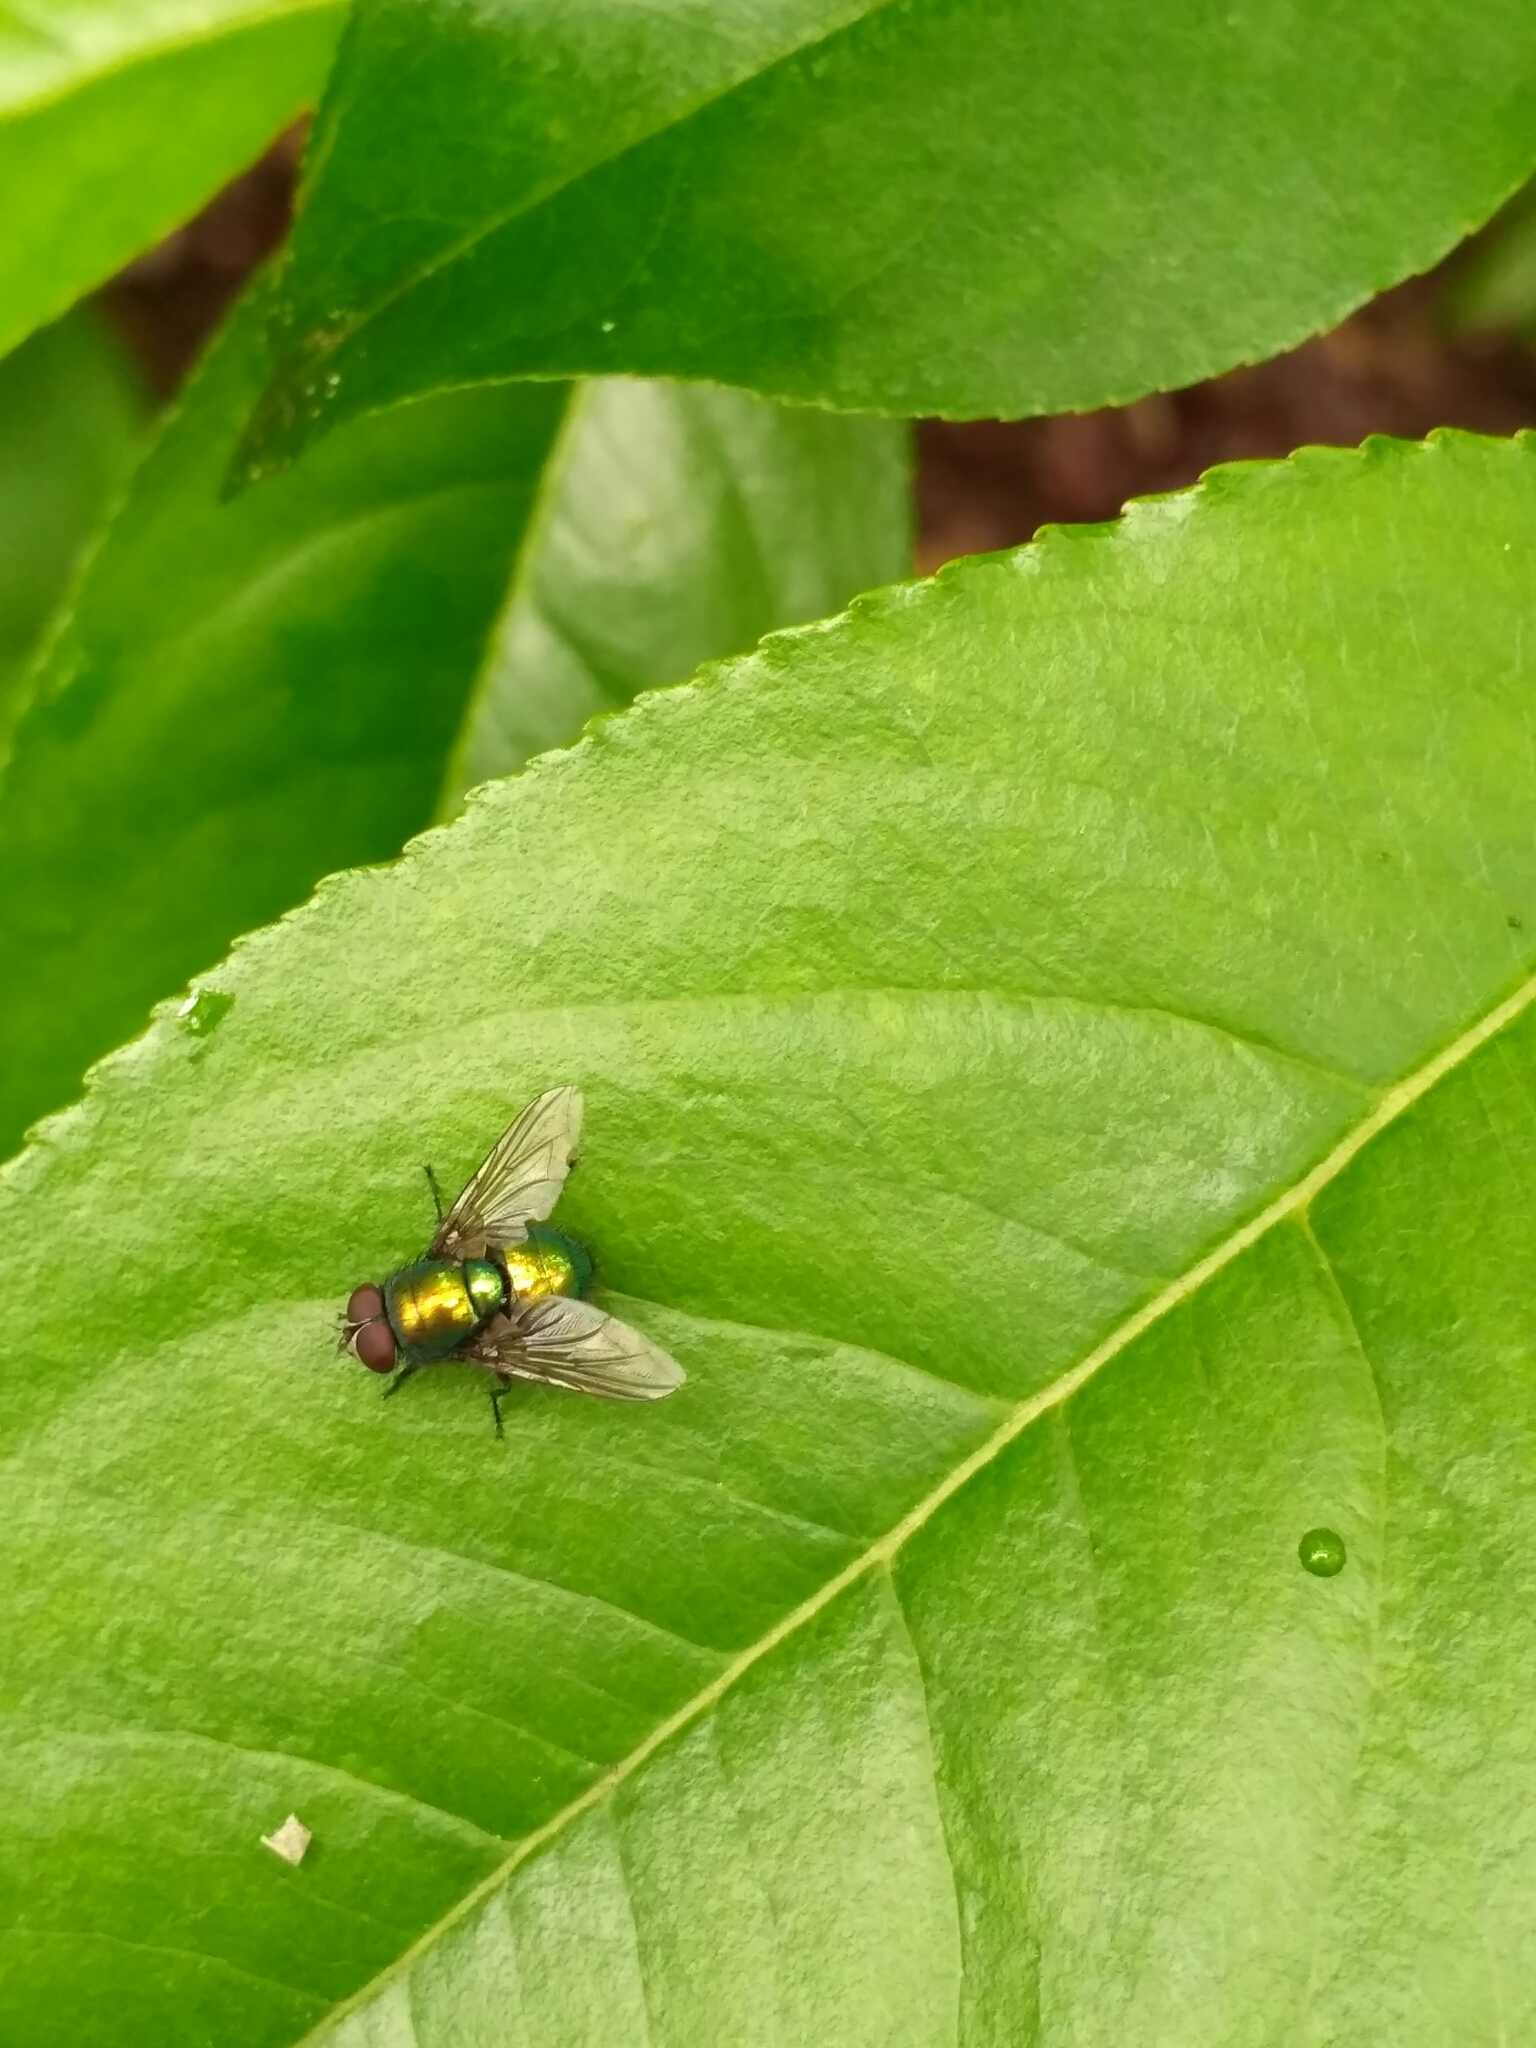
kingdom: Animalia
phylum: Arthropoda
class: Insecta
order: Diptera
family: Calliphoridae
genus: Lucilia
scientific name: Lucilia
